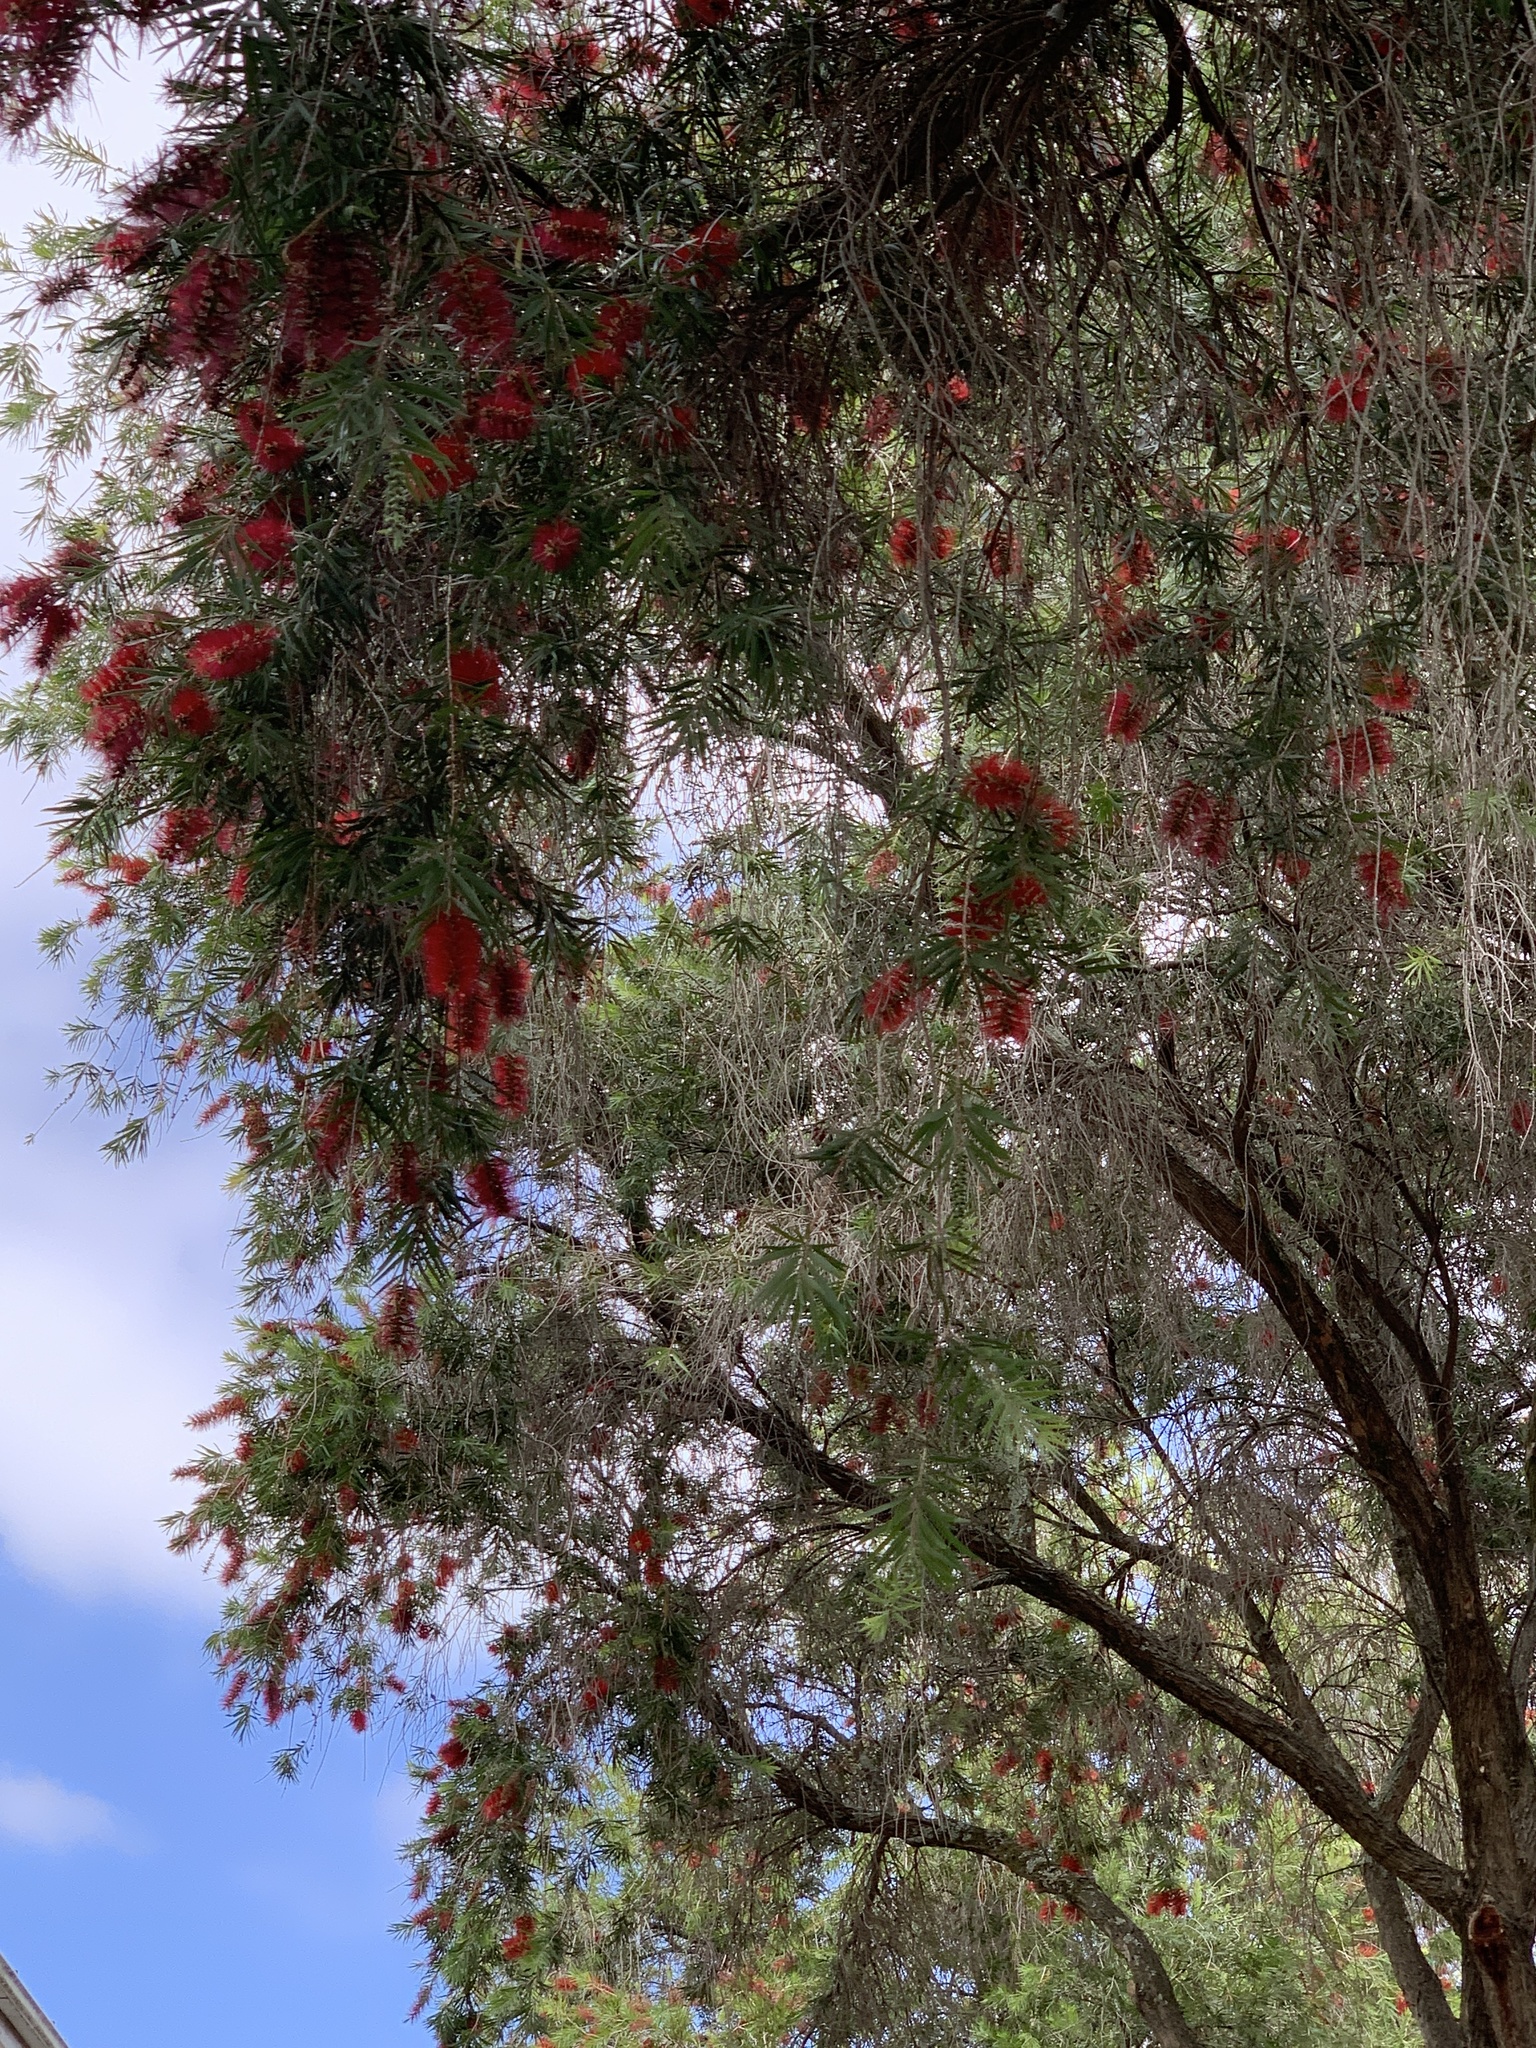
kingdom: Plantae
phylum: Tracheophyta
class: Magnoliopsida
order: Myrtales
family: Myrtaceae
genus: Callistemon
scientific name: Callistemon viminalis
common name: Drooping bottlebrush
